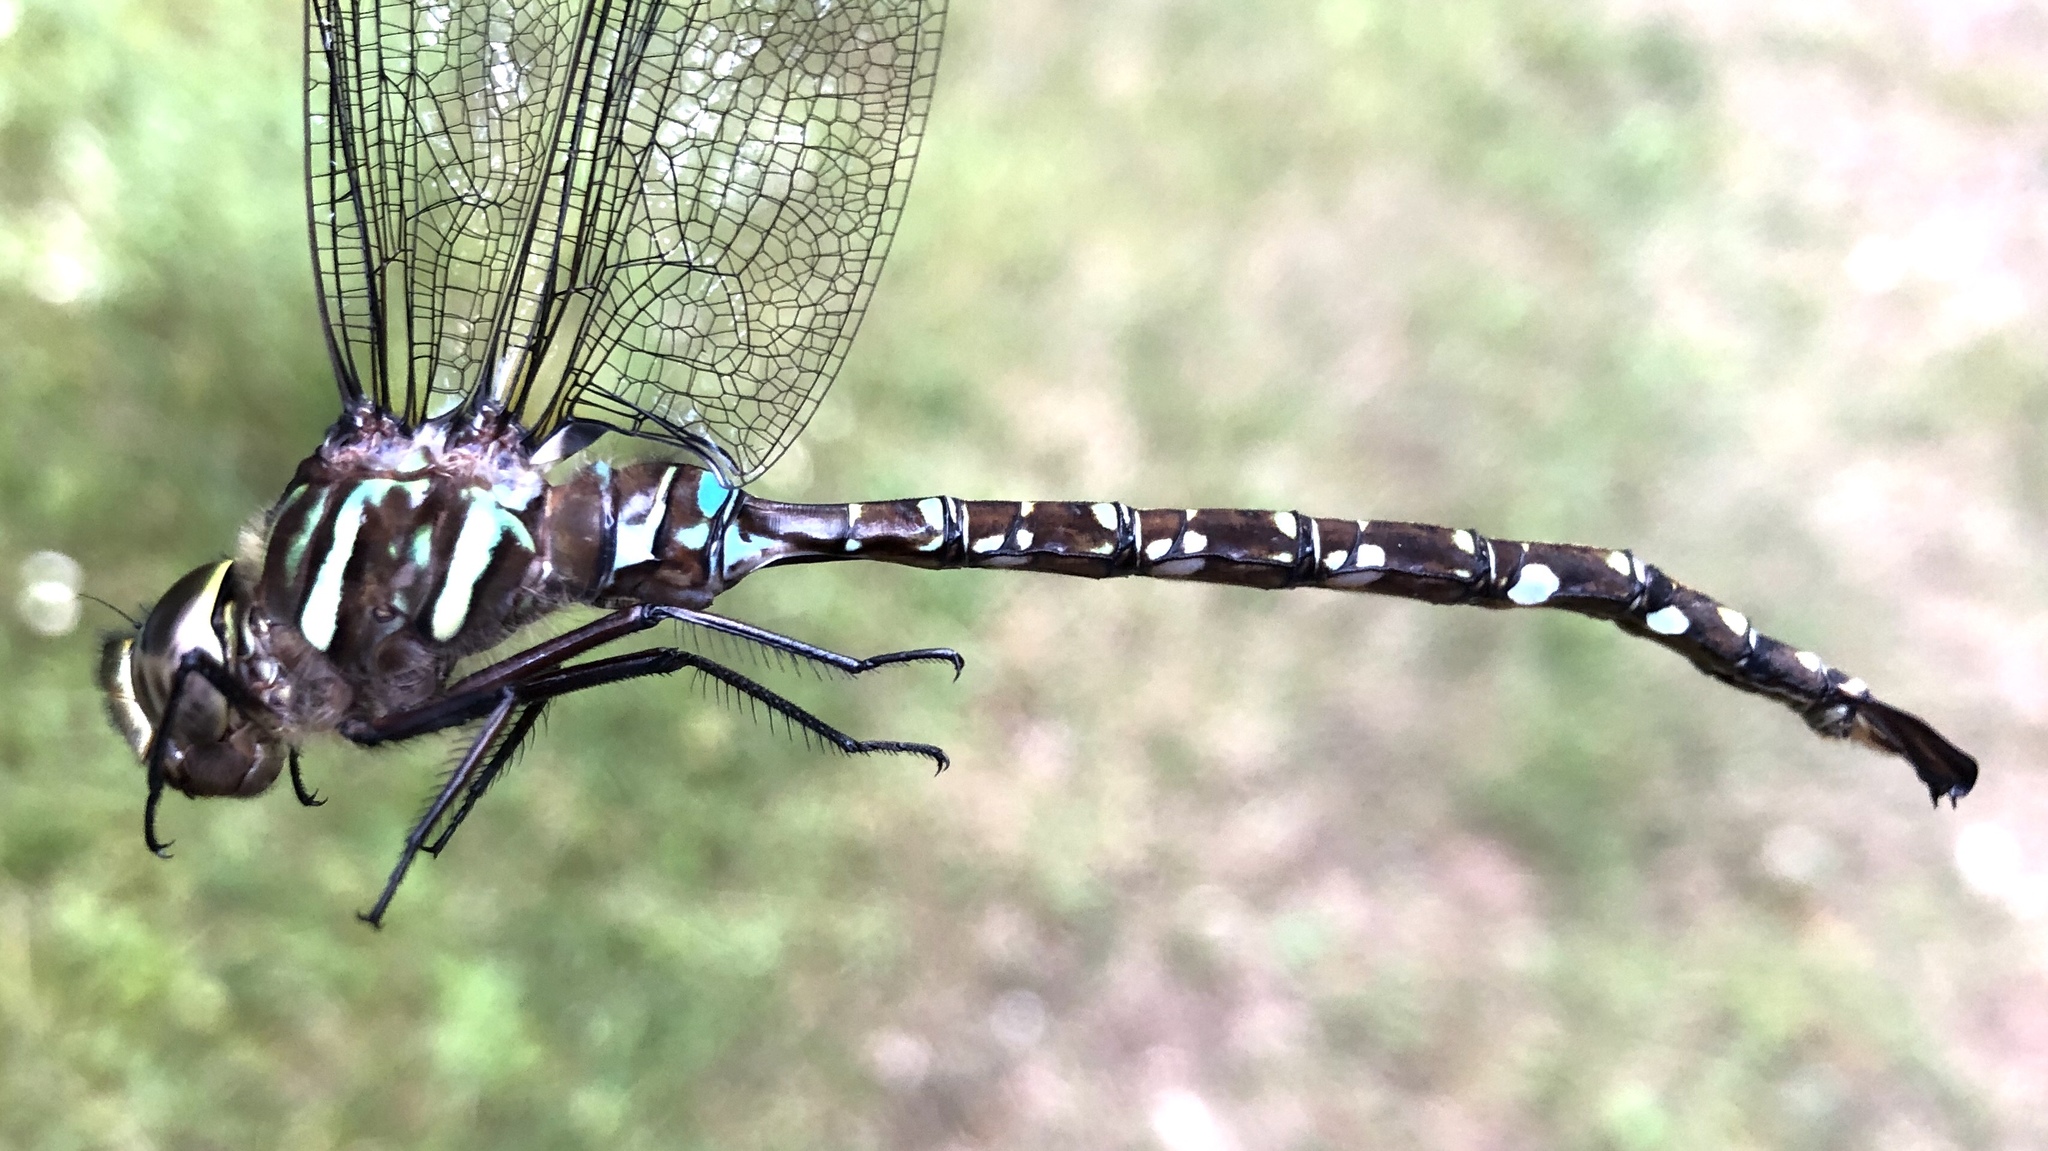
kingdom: Animalia
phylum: Arthropoda
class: Insecta
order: Odonata
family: Aeshnidae
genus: Aeshna
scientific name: Aeshna umbrosa
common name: Shadow darner
